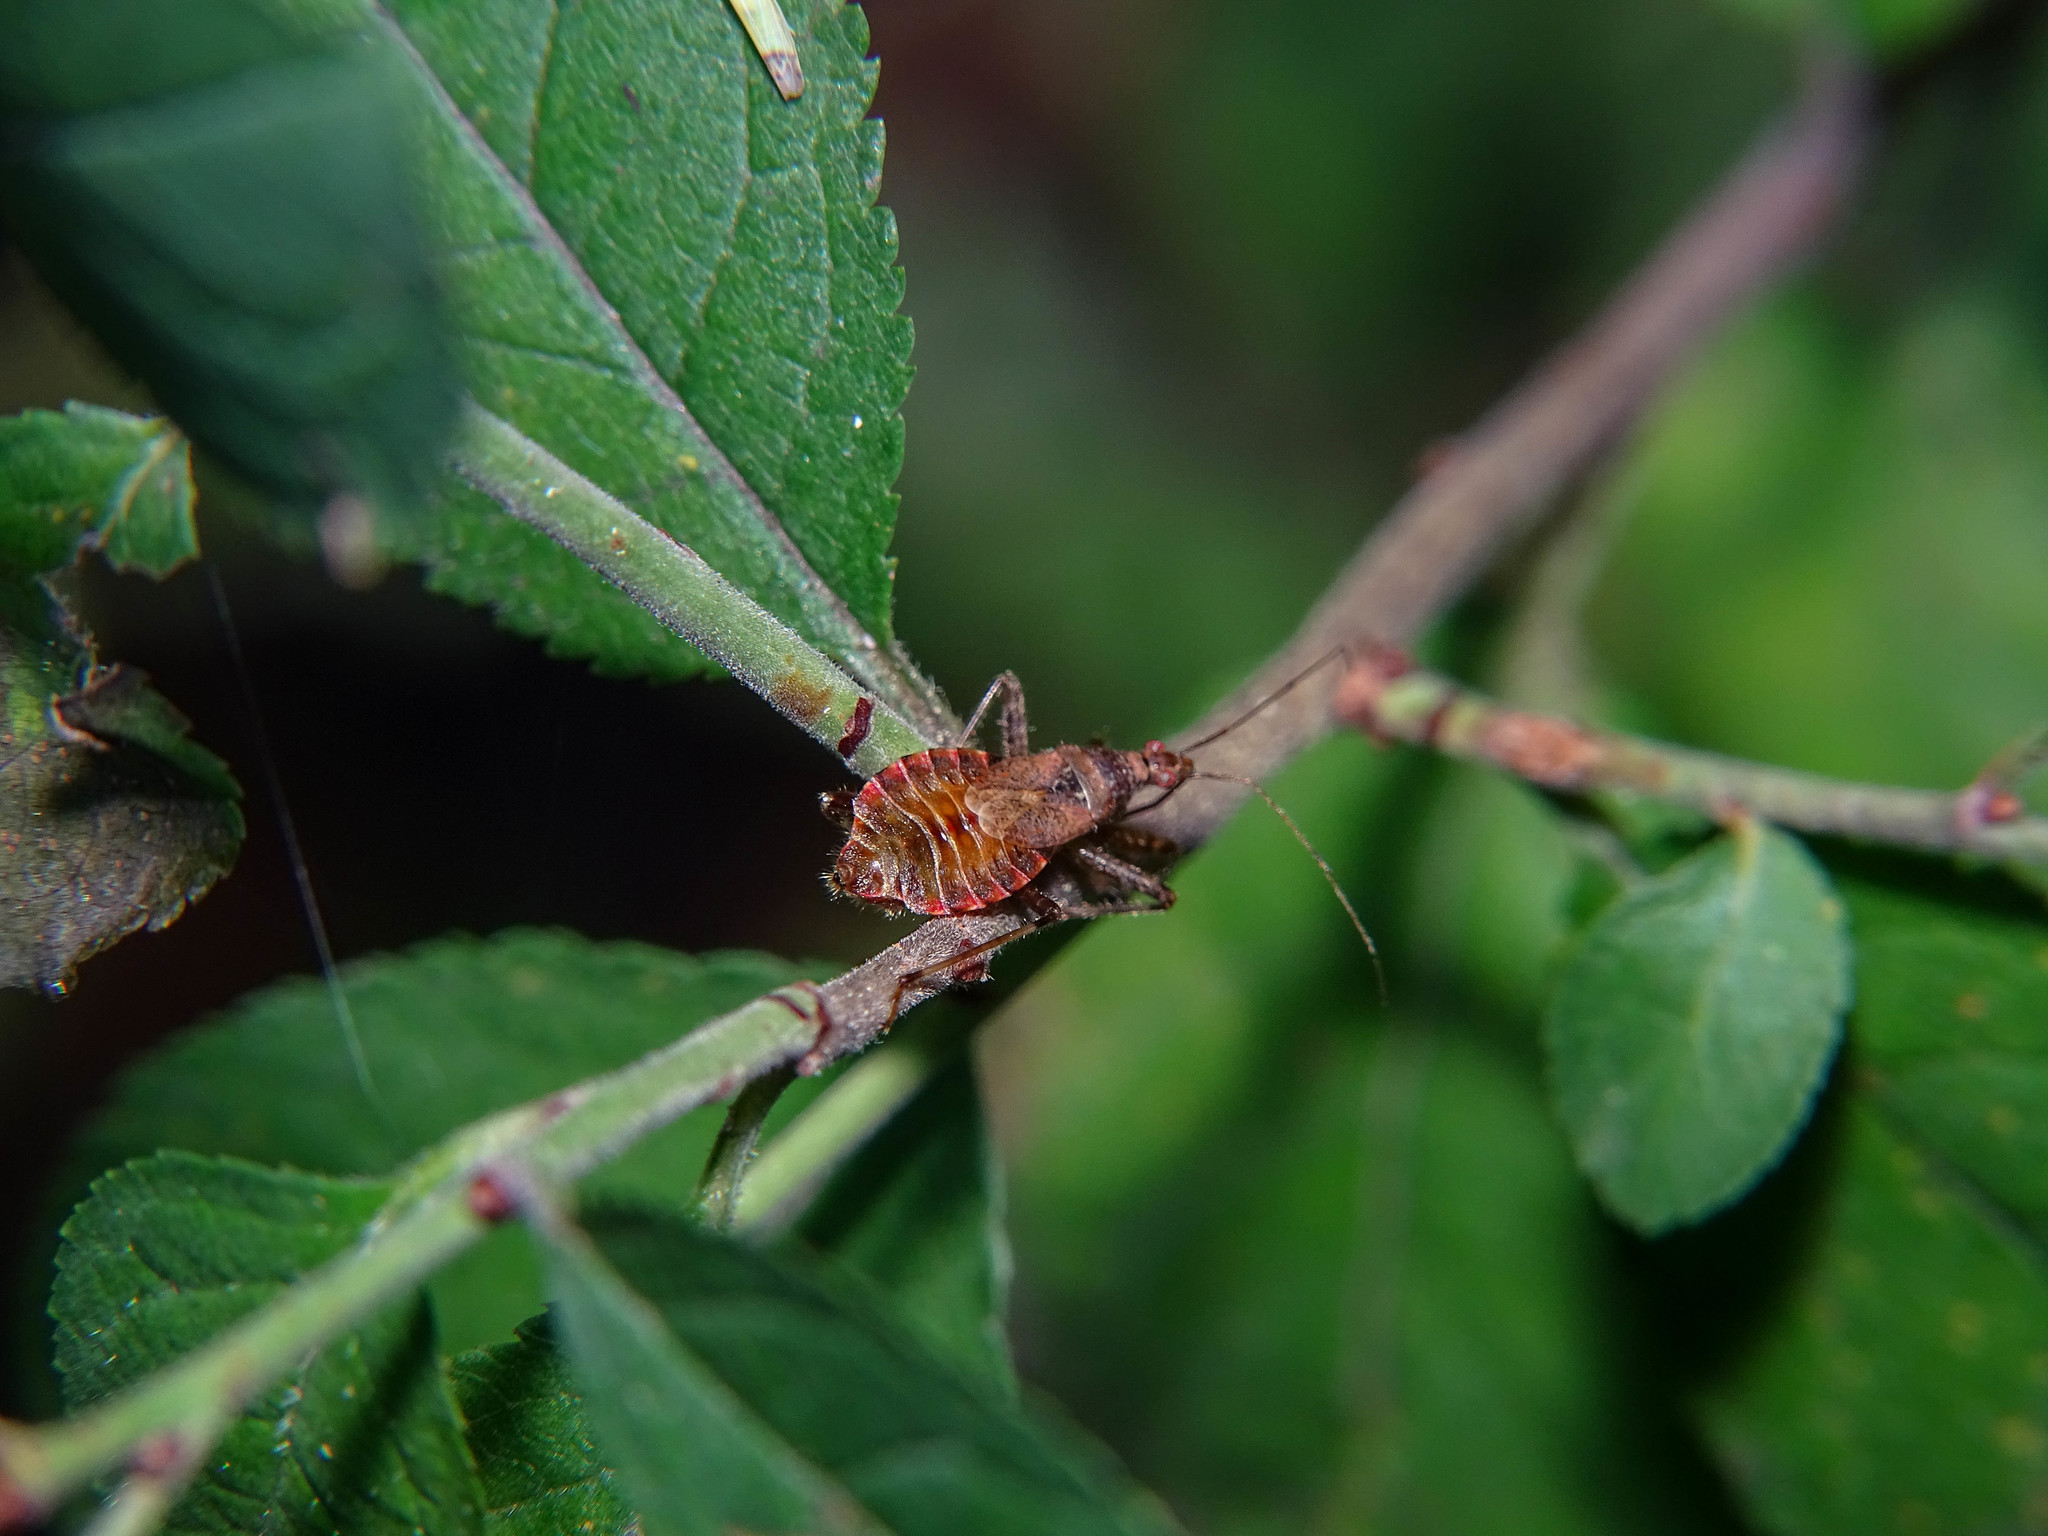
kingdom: Animalia
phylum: Arthropoda
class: Insecta
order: Hemiptera
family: Nabidae
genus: Himacerus
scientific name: Himacerus apterus
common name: Tree damsel bug
